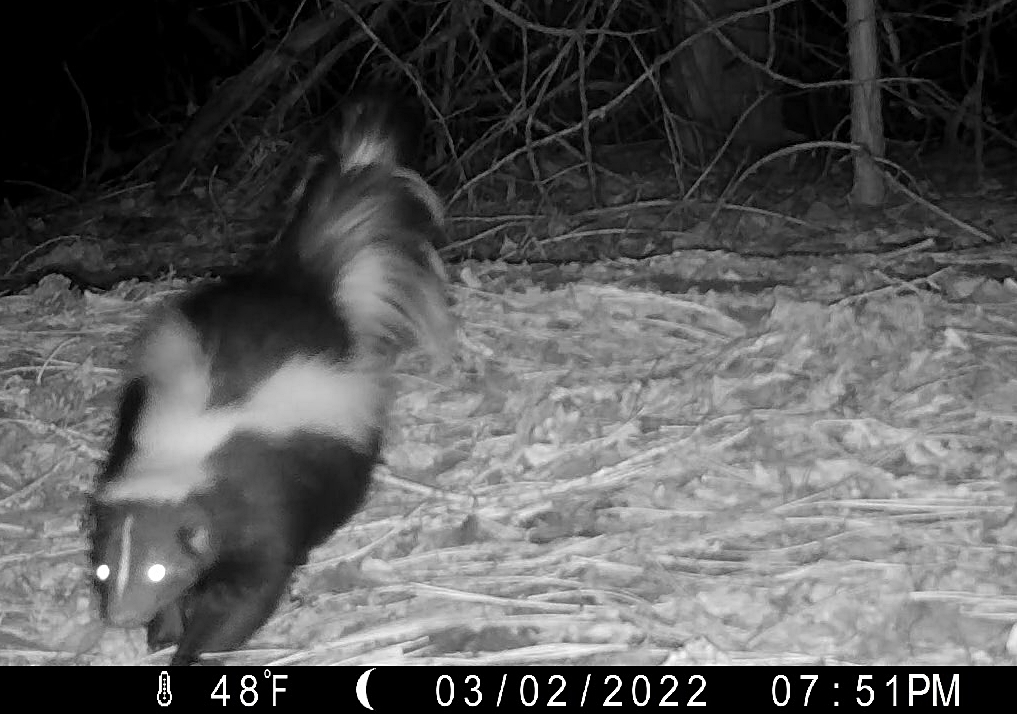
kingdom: Animalia
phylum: Chordata
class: Mammalia
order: Carnivora
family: Mephitidae
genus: Mephitis
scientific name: Mephitis mephitis
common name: Striped skunk
